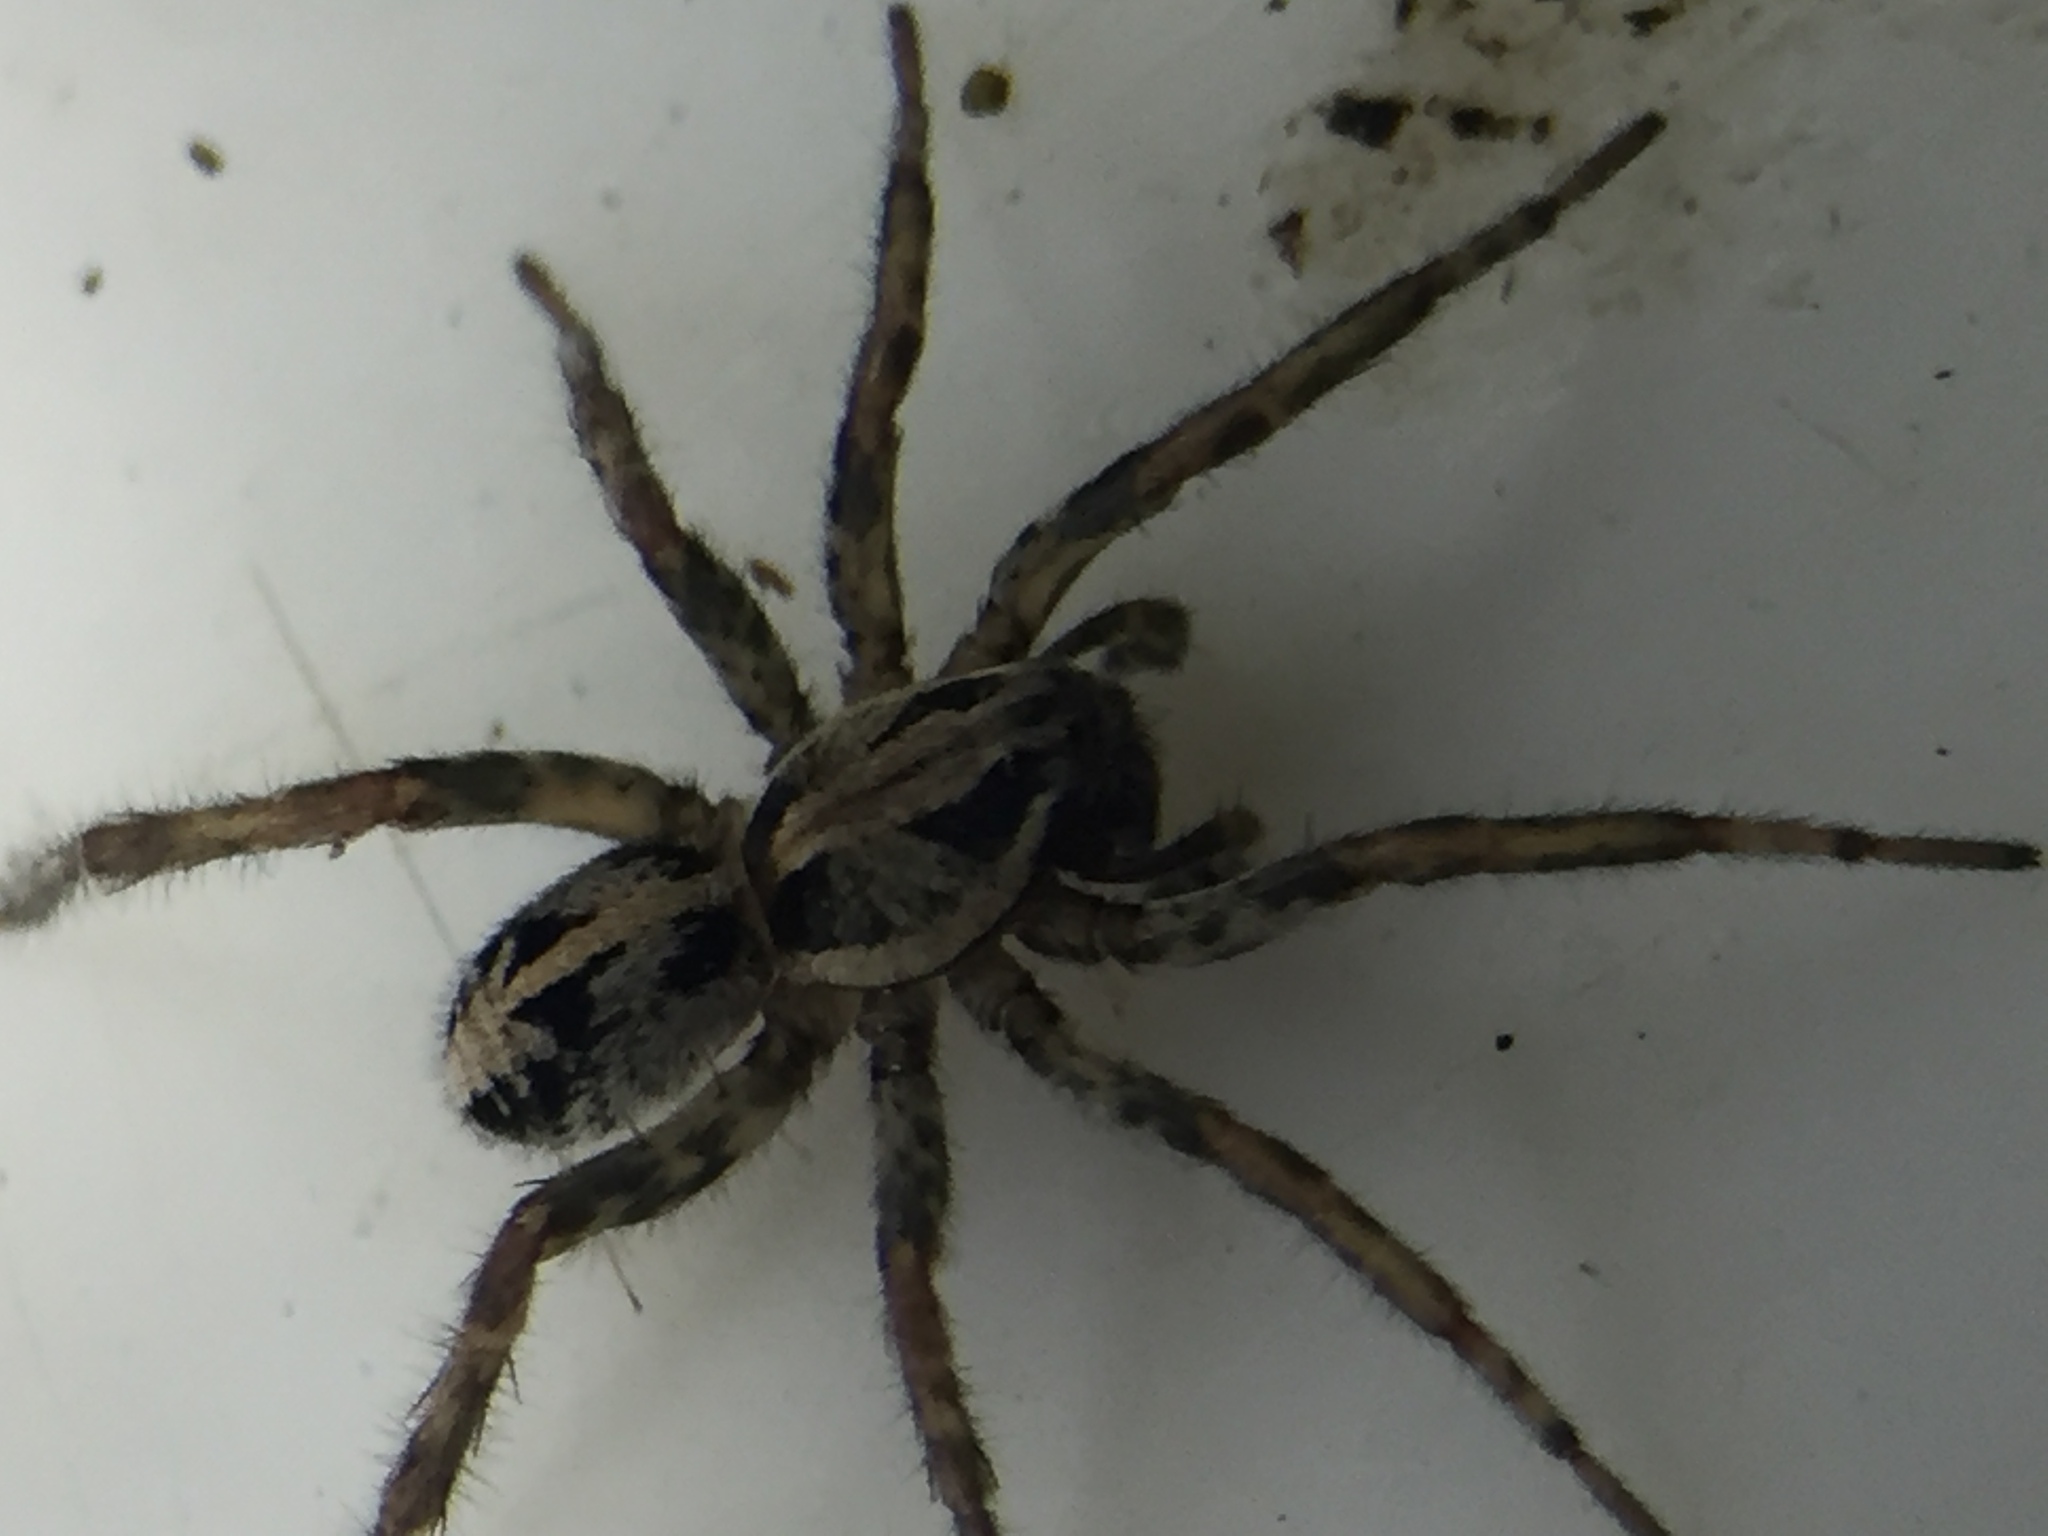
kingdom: Animalia
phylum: Arthropoda
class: Arachnida
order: Araneae
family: Lycosidae
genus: Artoriopsis
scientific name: Artoriopsis expolita
